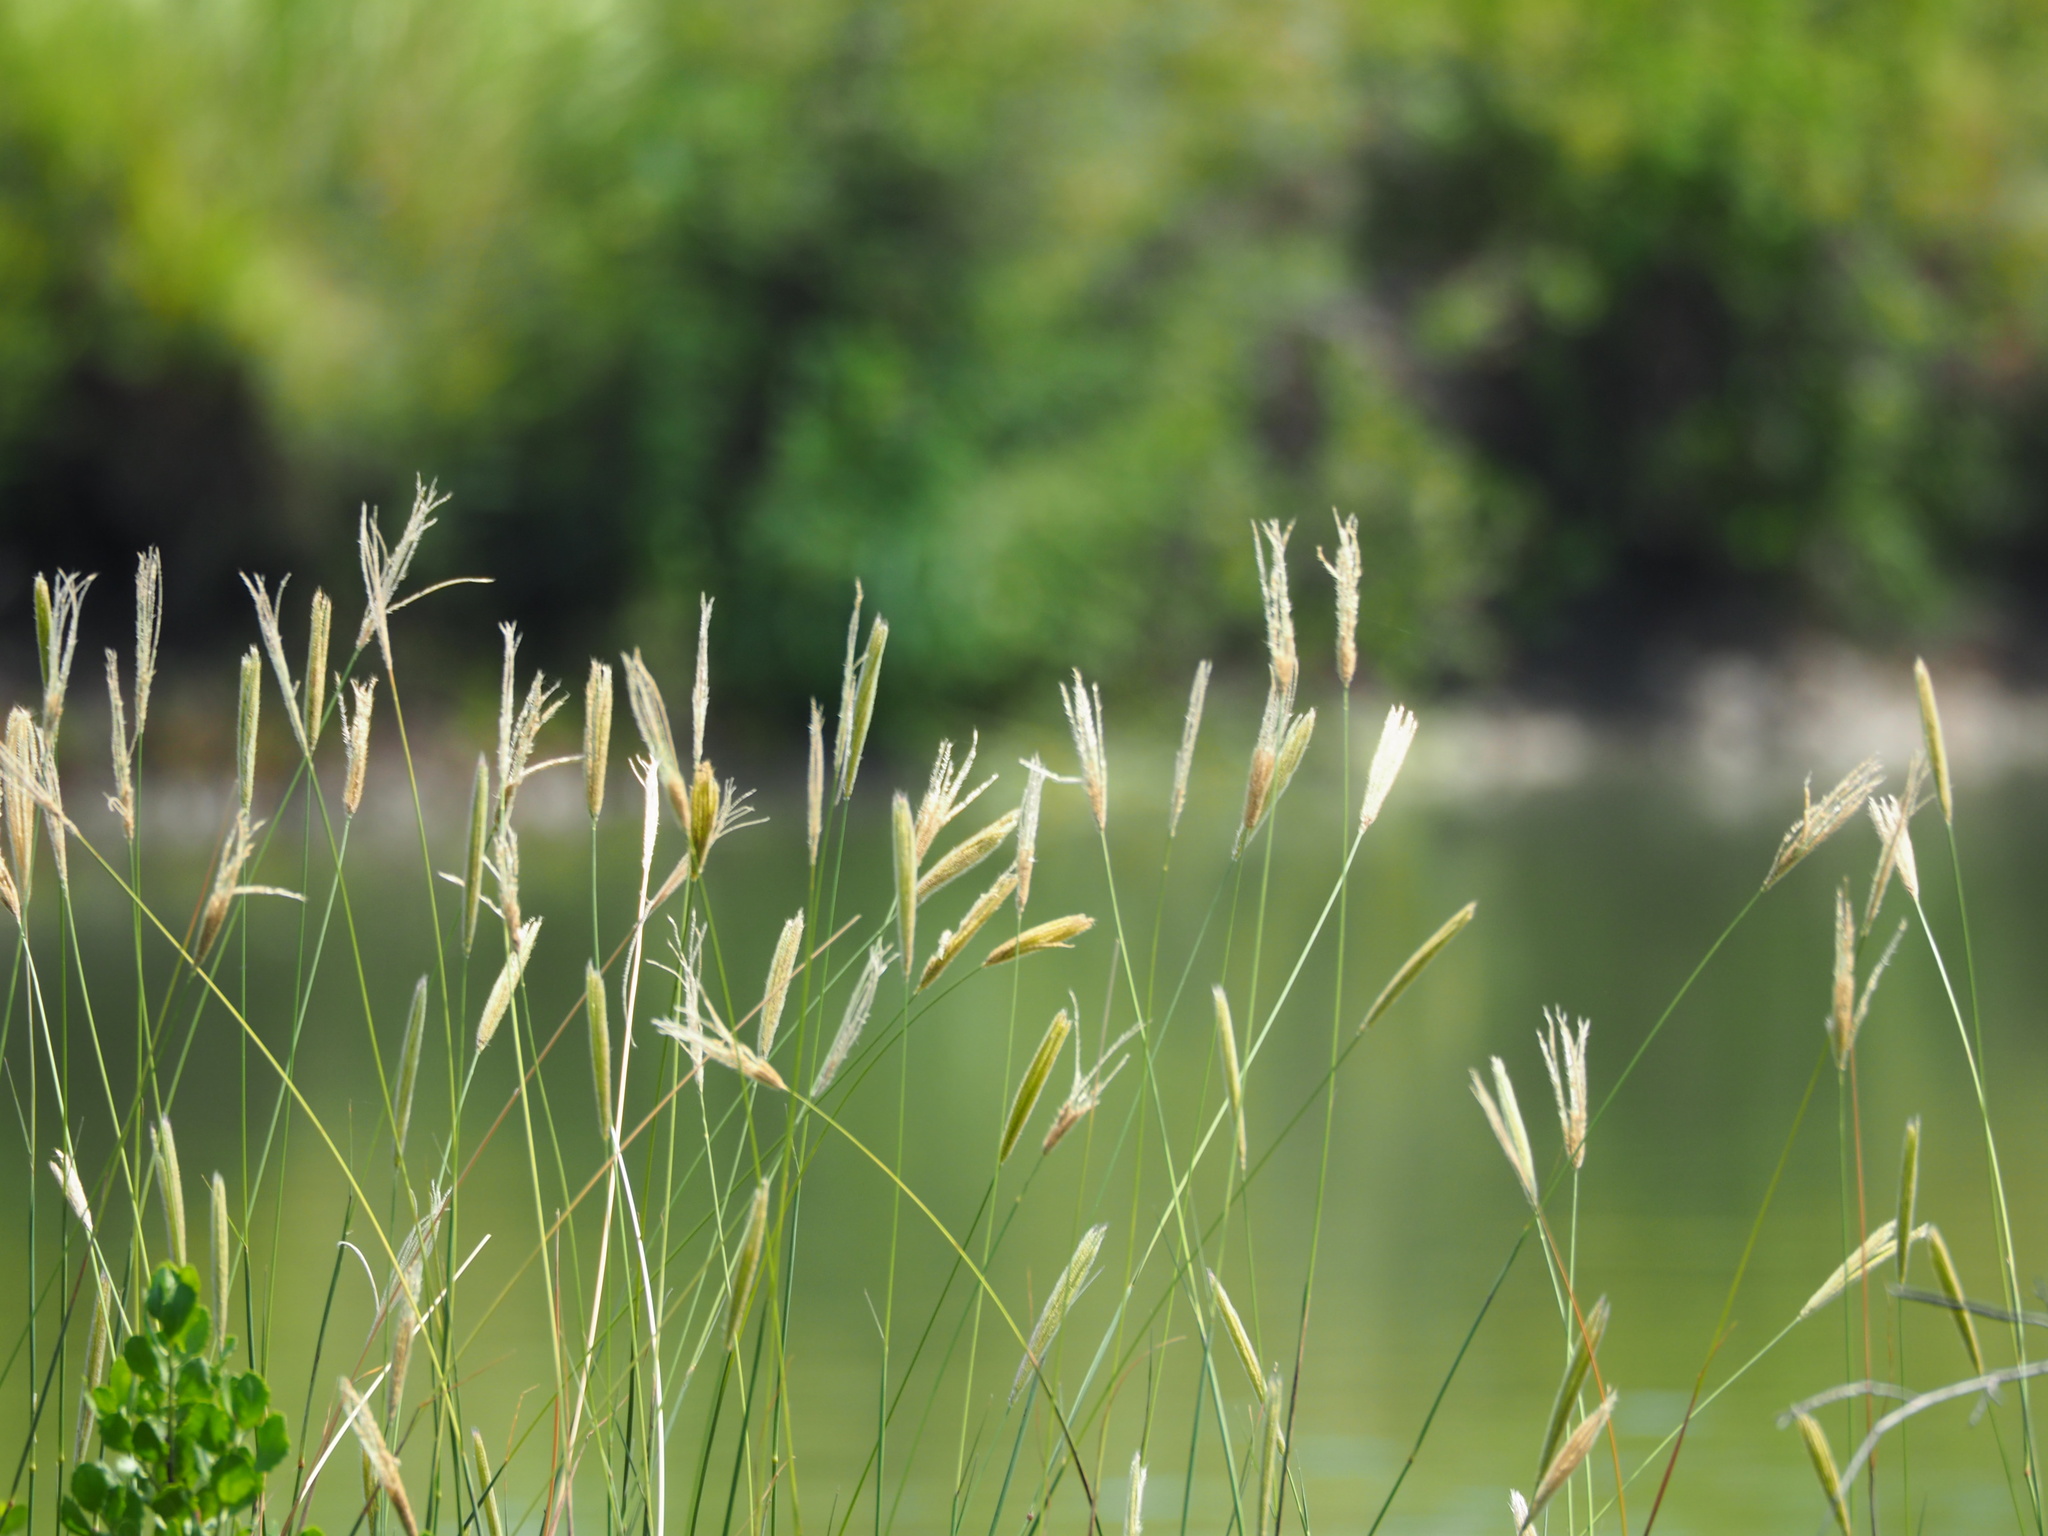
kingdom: Plantae
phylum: Tracheophyta
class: Liliopsida
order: Poales
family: Poaceae
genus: Chloris
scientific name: Chloris formosana
